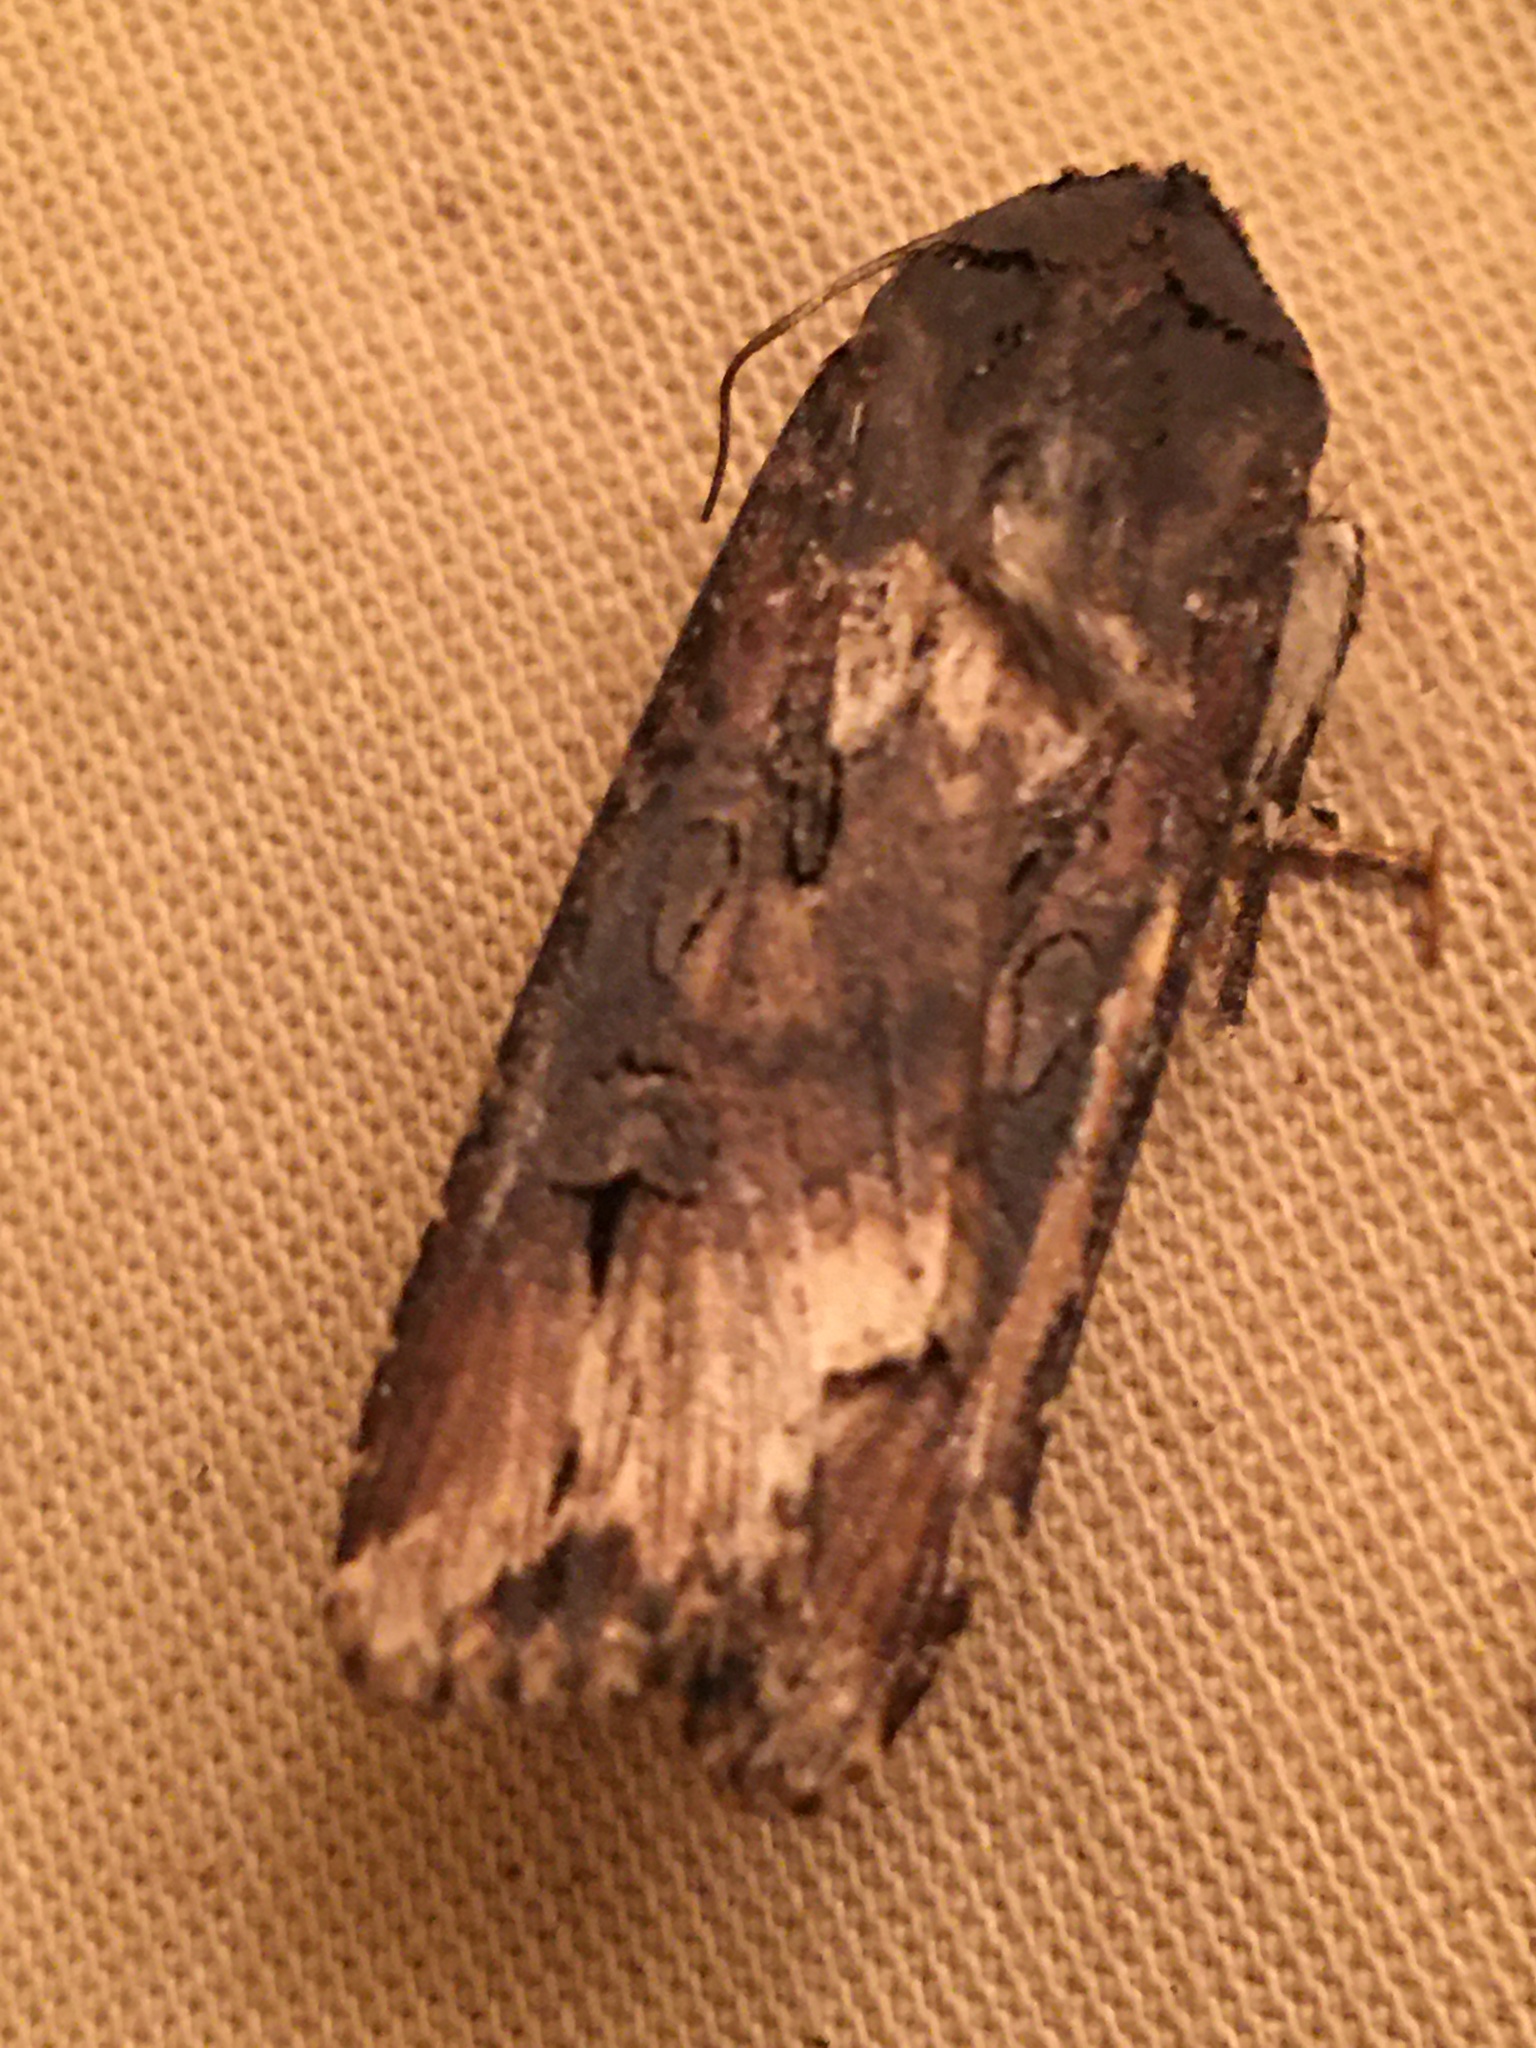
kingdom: Animalia
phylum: Arthropoda
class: Insecta
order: Lepidoptera
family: Noctuidae
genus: Agrotis
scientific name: Agrotis ipsilon
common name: Dark sword-grass
